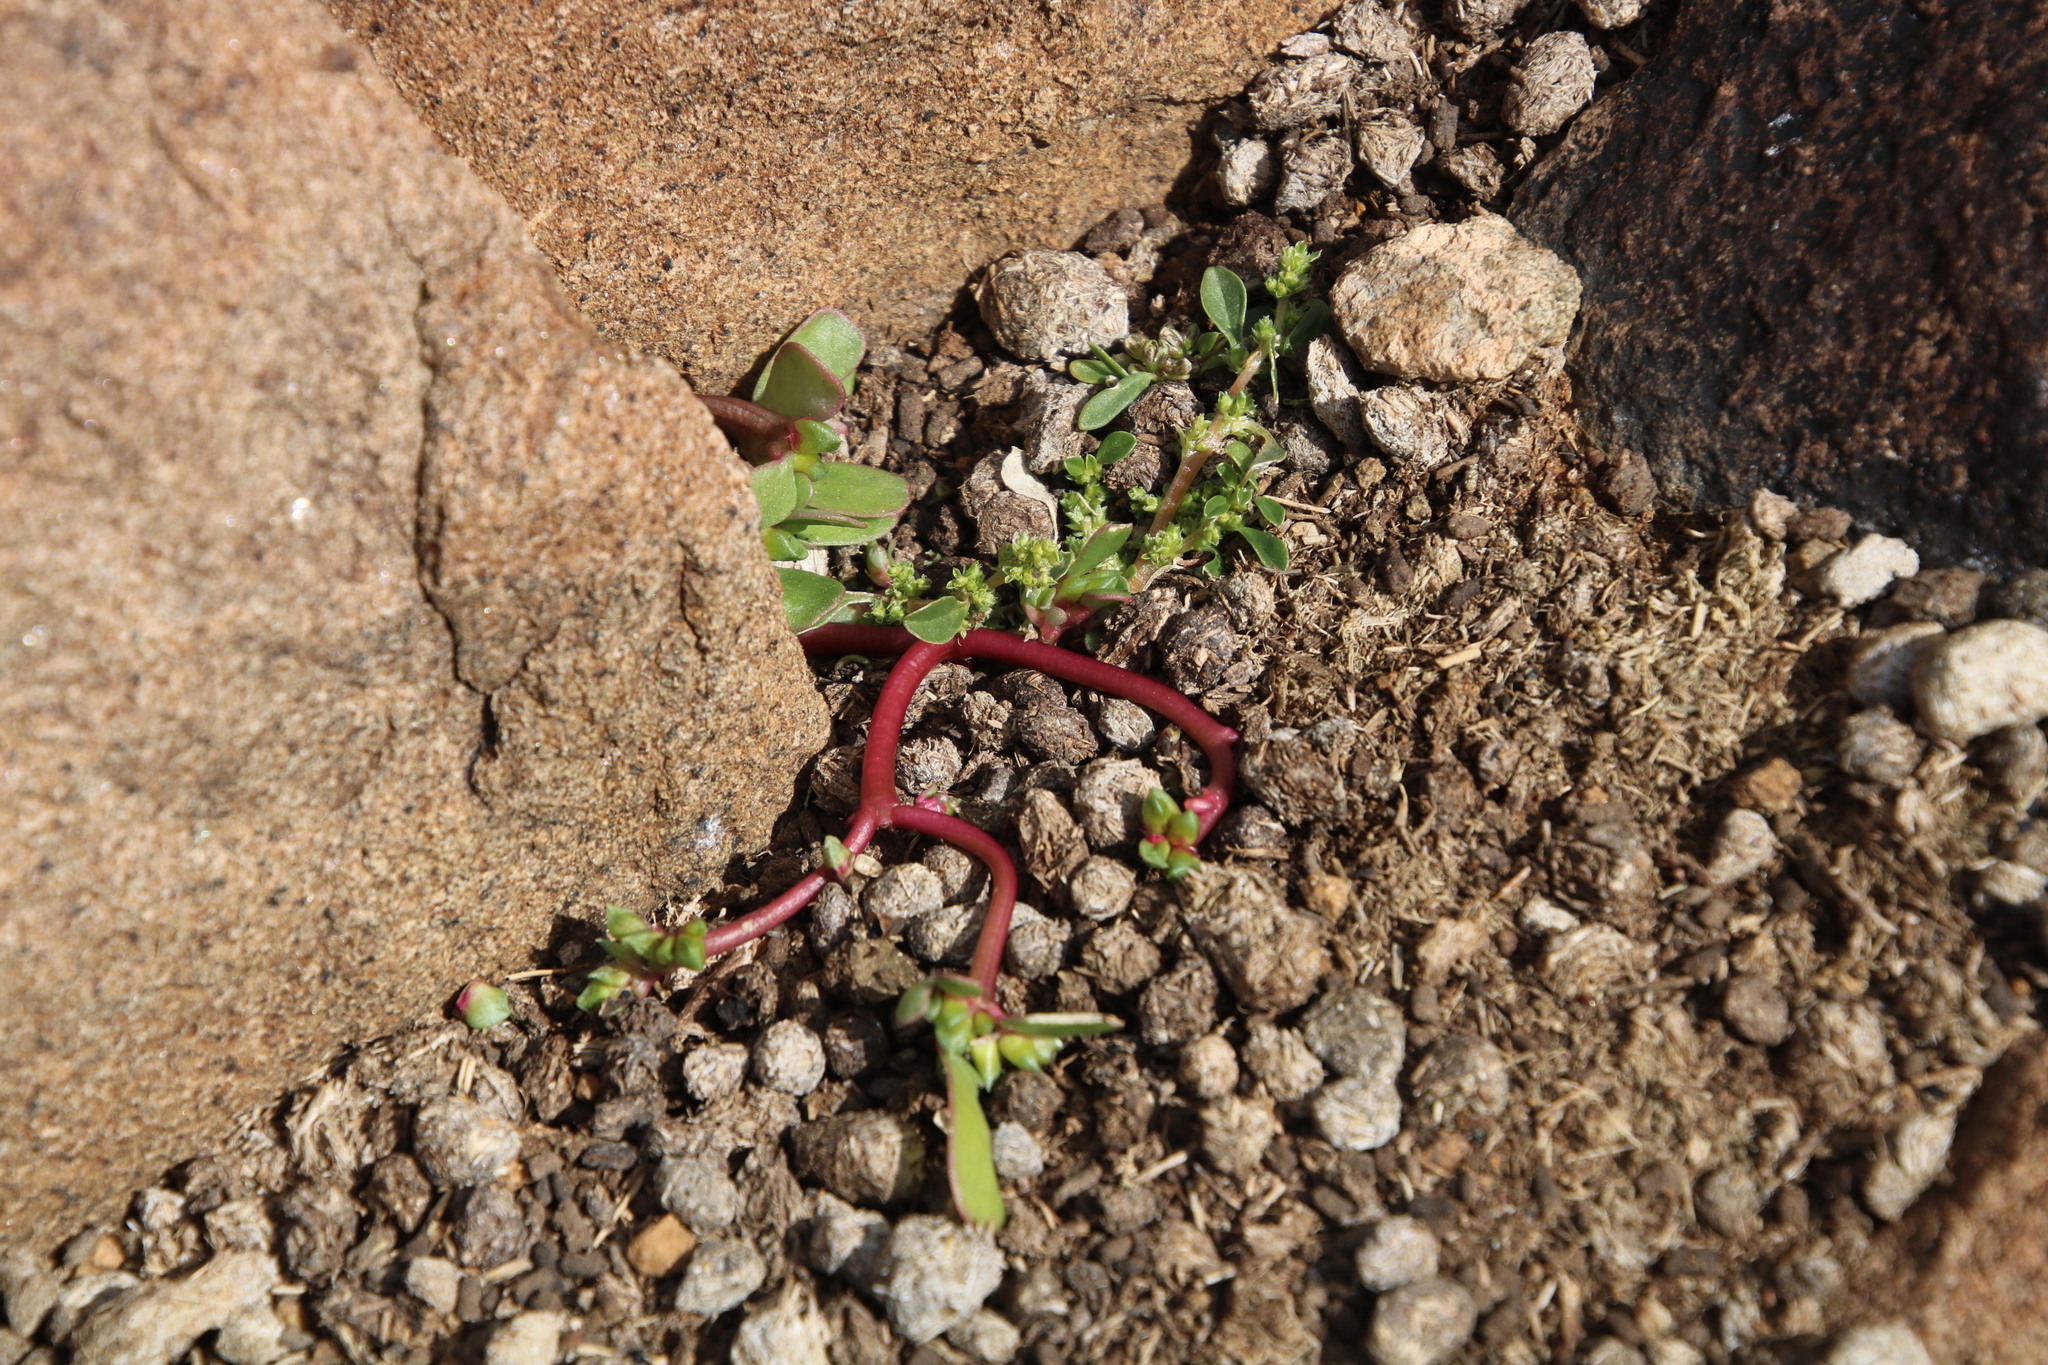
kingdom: Plantae
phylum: Tracheophyta
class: Magnoliopsida
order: Caryophyllales
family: Portulacaceae
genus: Portulaca
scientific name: Portulaca oleracea
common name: Common purslane
